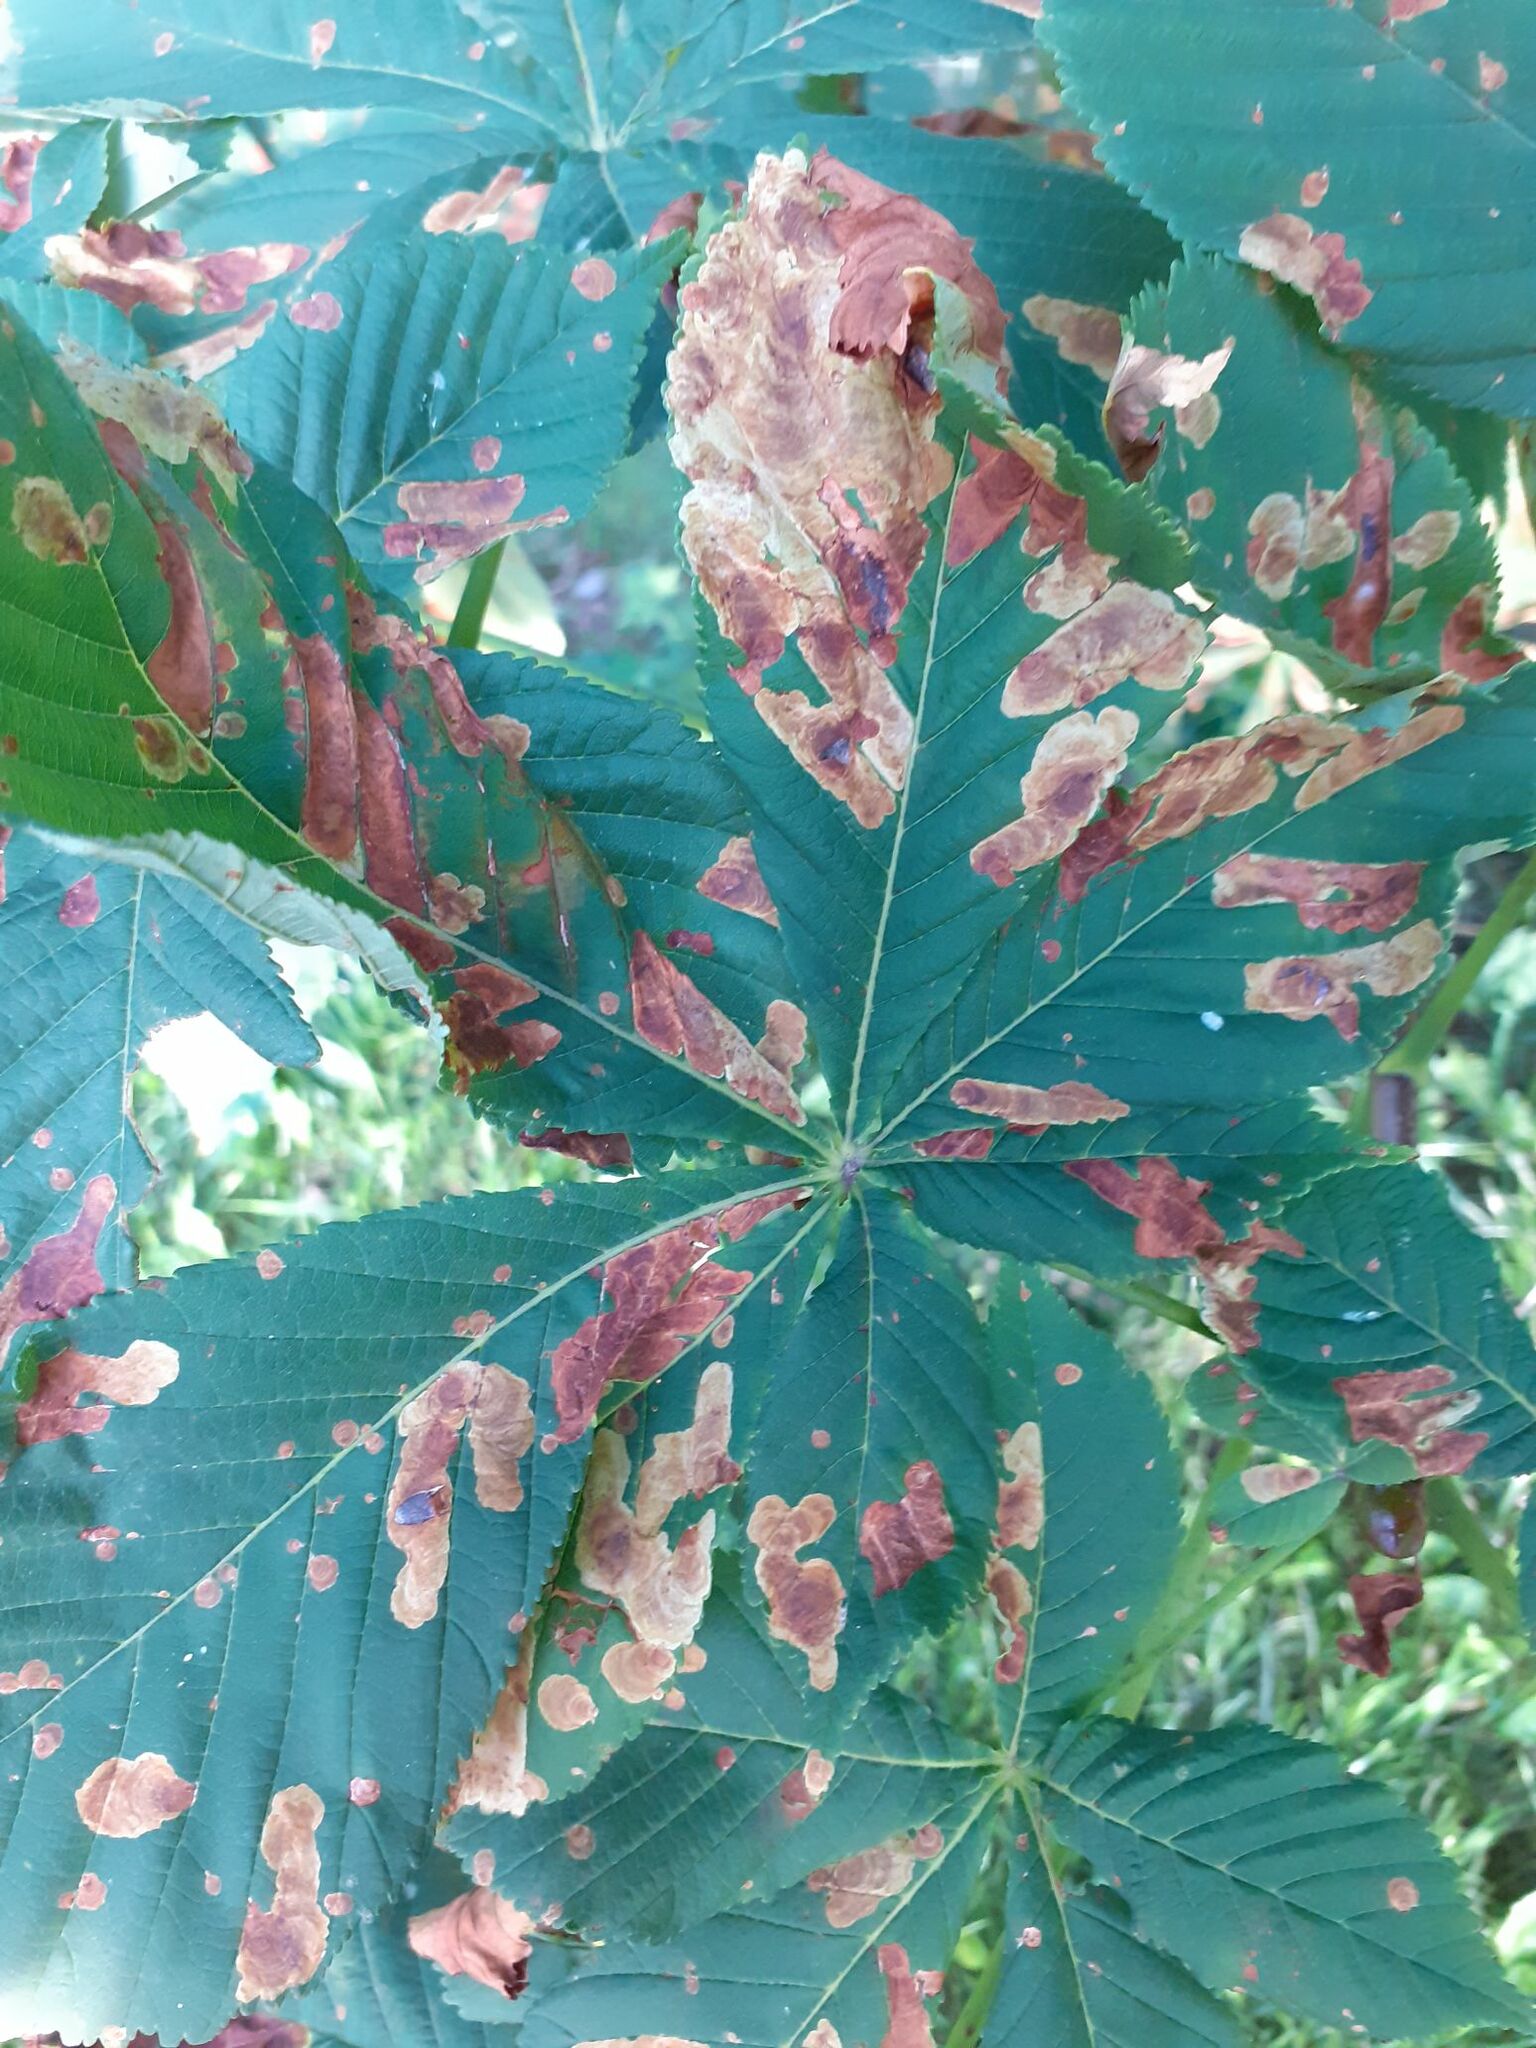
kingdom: Animalia
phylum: Arthropoda
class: Insecta
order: Lepidoptera
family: Gracillariidae
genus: Cameraria
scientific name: Cameraria ohridella
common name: Horse-chestnut leaf-miner
